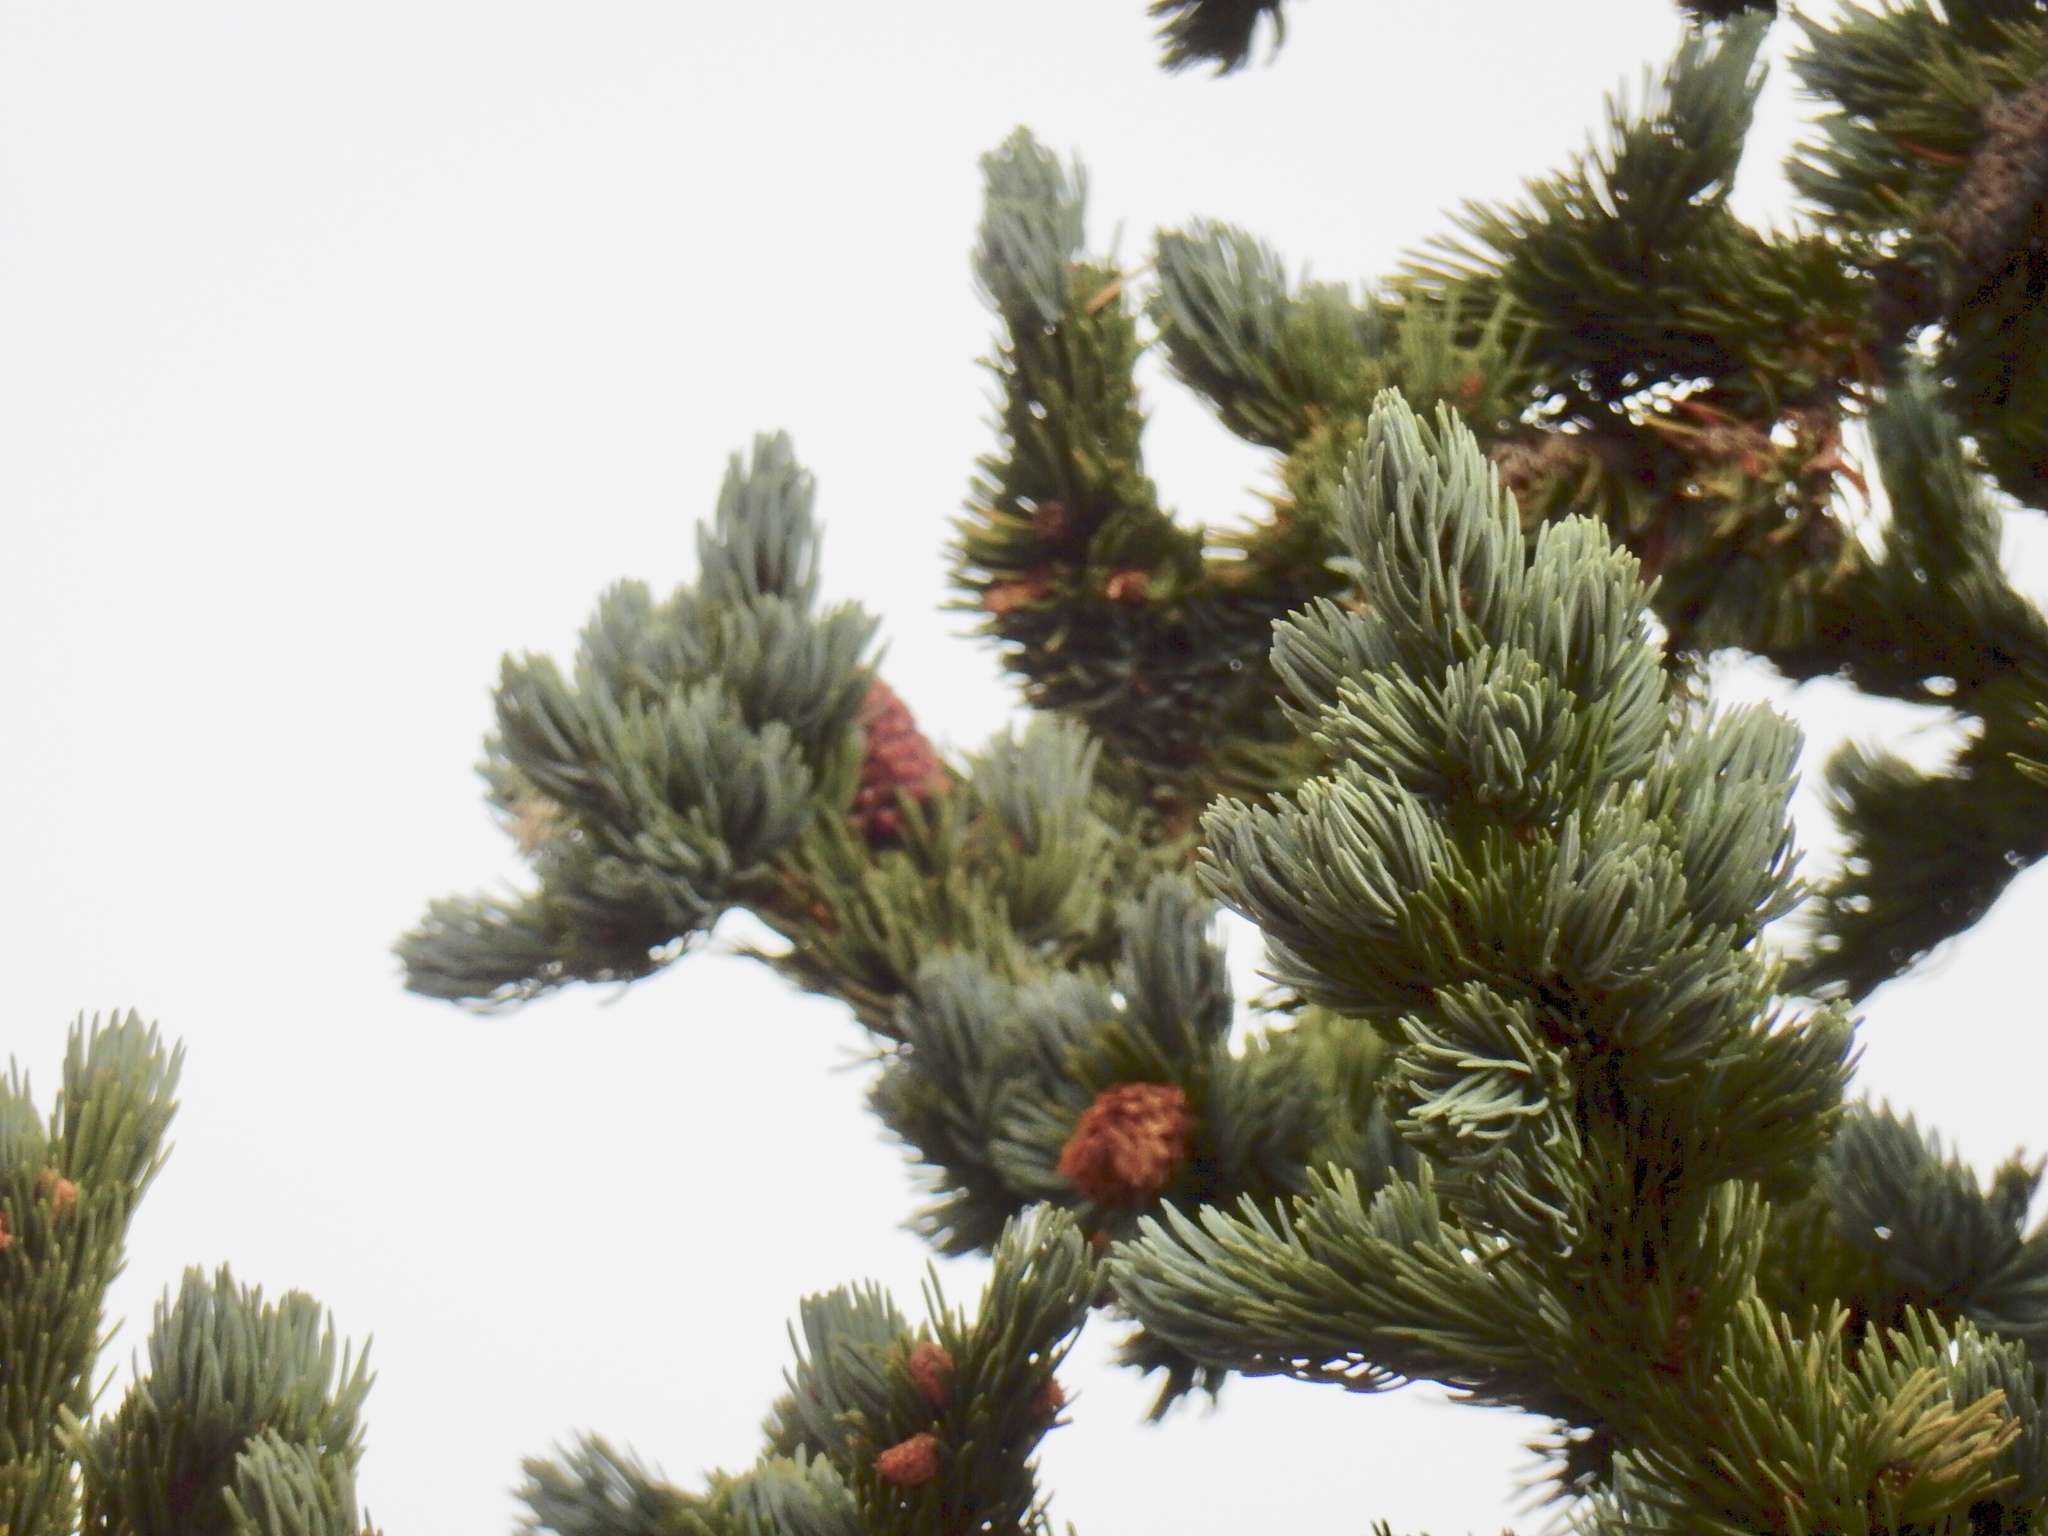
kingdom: Plantae
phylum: Tracheophyta
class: Pinopsida
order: Pinales
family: Pinaceae
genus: Picea
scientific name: Picea engelmannii
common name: Engelmann spruce
